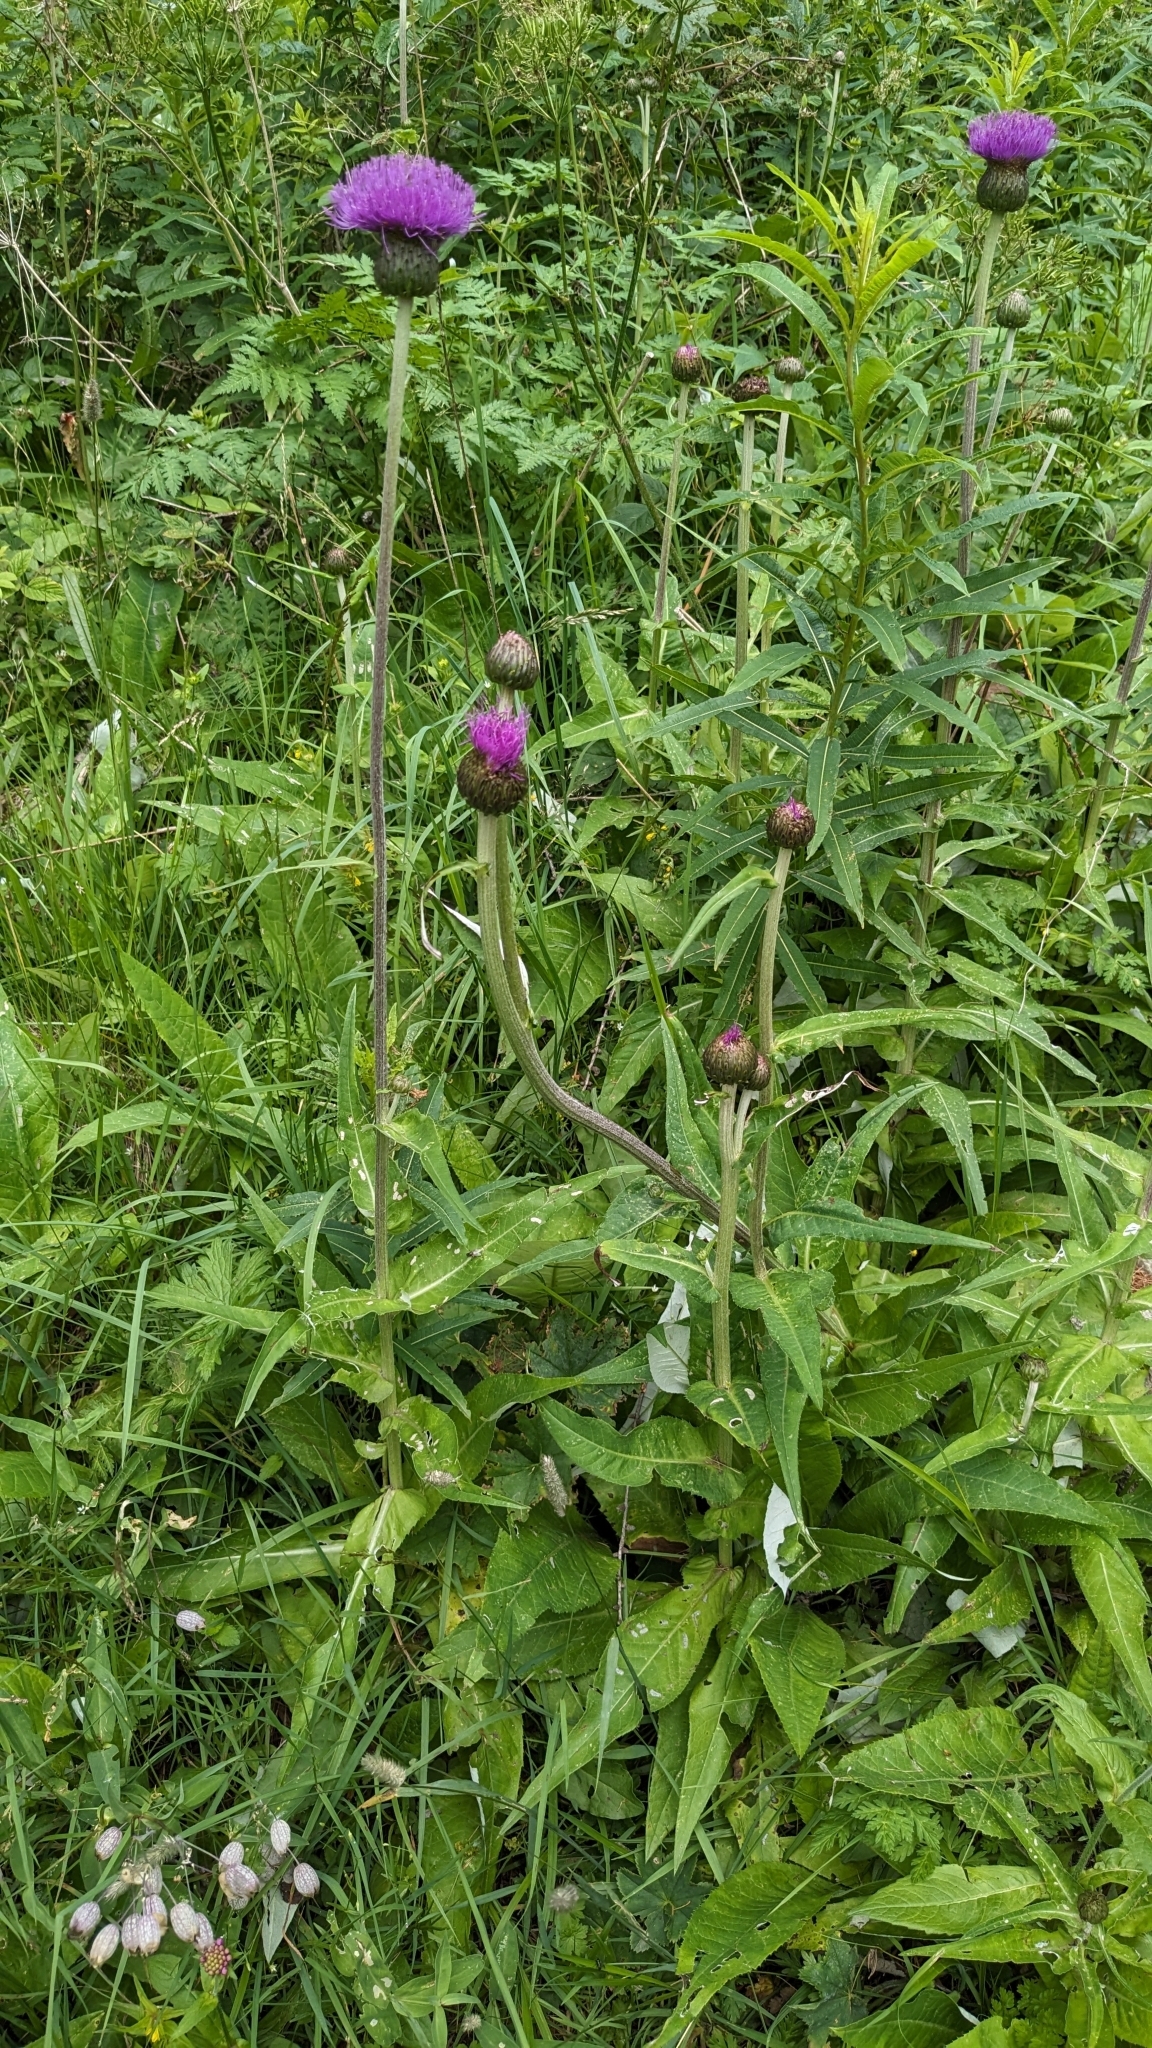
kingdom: Plantae
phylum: Tracheophyta
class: Magnoliopsida
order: Asterales
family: Asteraceae
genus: Cirsium
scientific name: Cirsium heterophyllum
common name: Melancholy thistle
